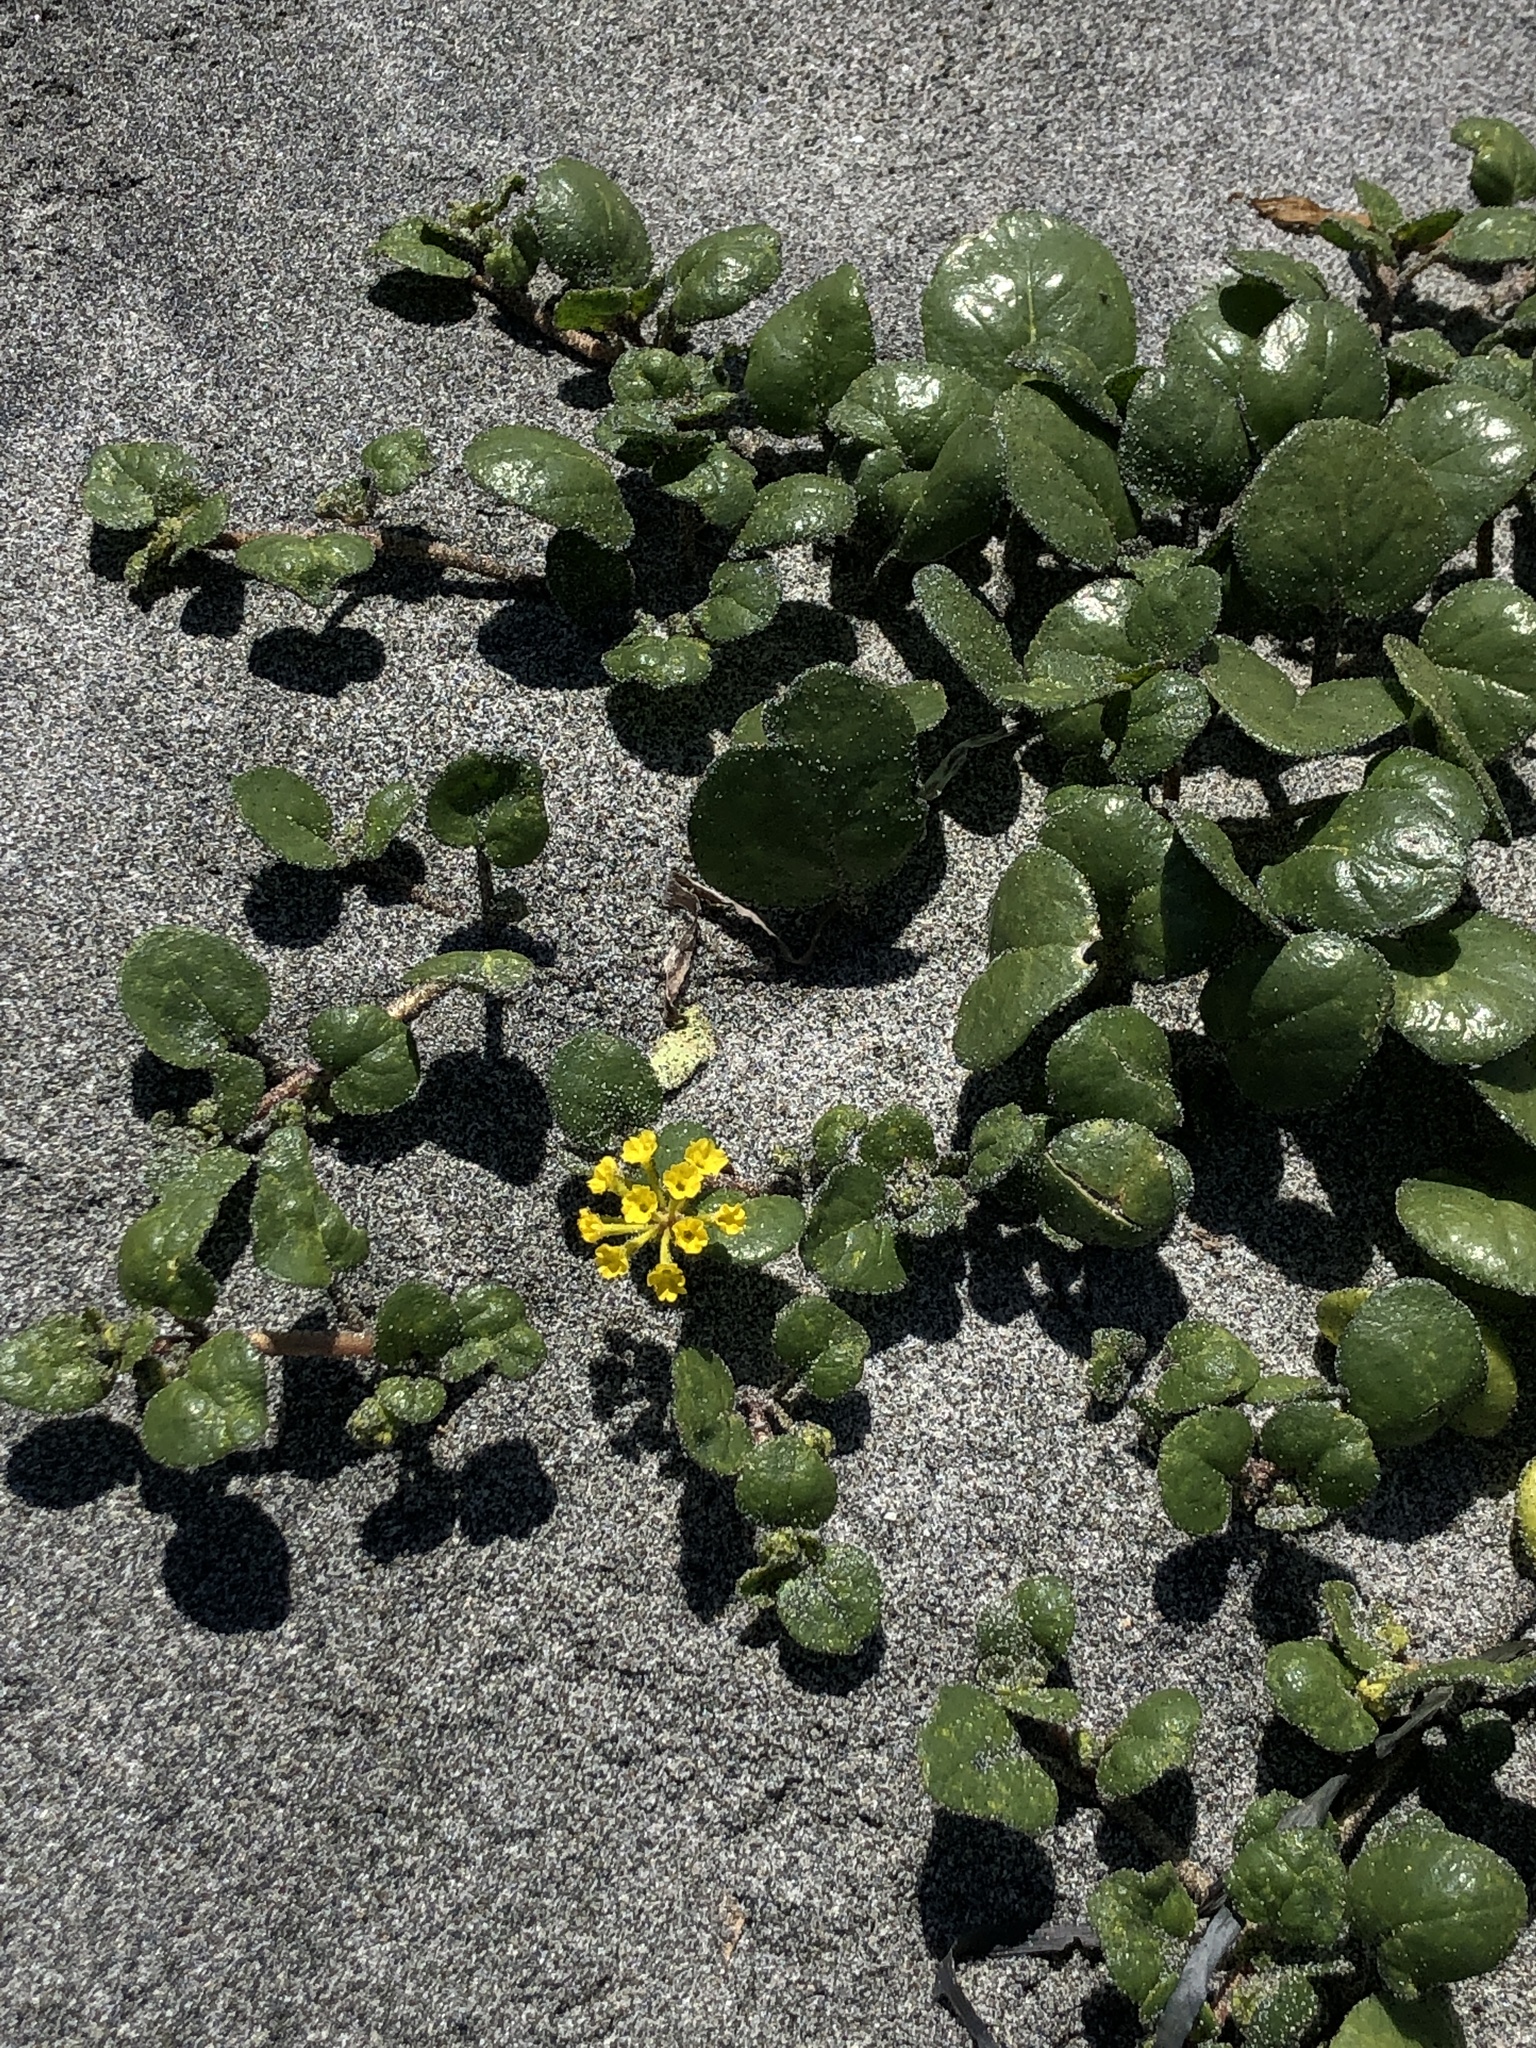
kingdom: Plantae
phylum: Tracheophyta
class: Magnoliopsida
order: Caryophyllales
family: Nyctaginaceae
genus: Abronia
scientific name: Abronia latifolia
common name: Yellow sand-verbena
